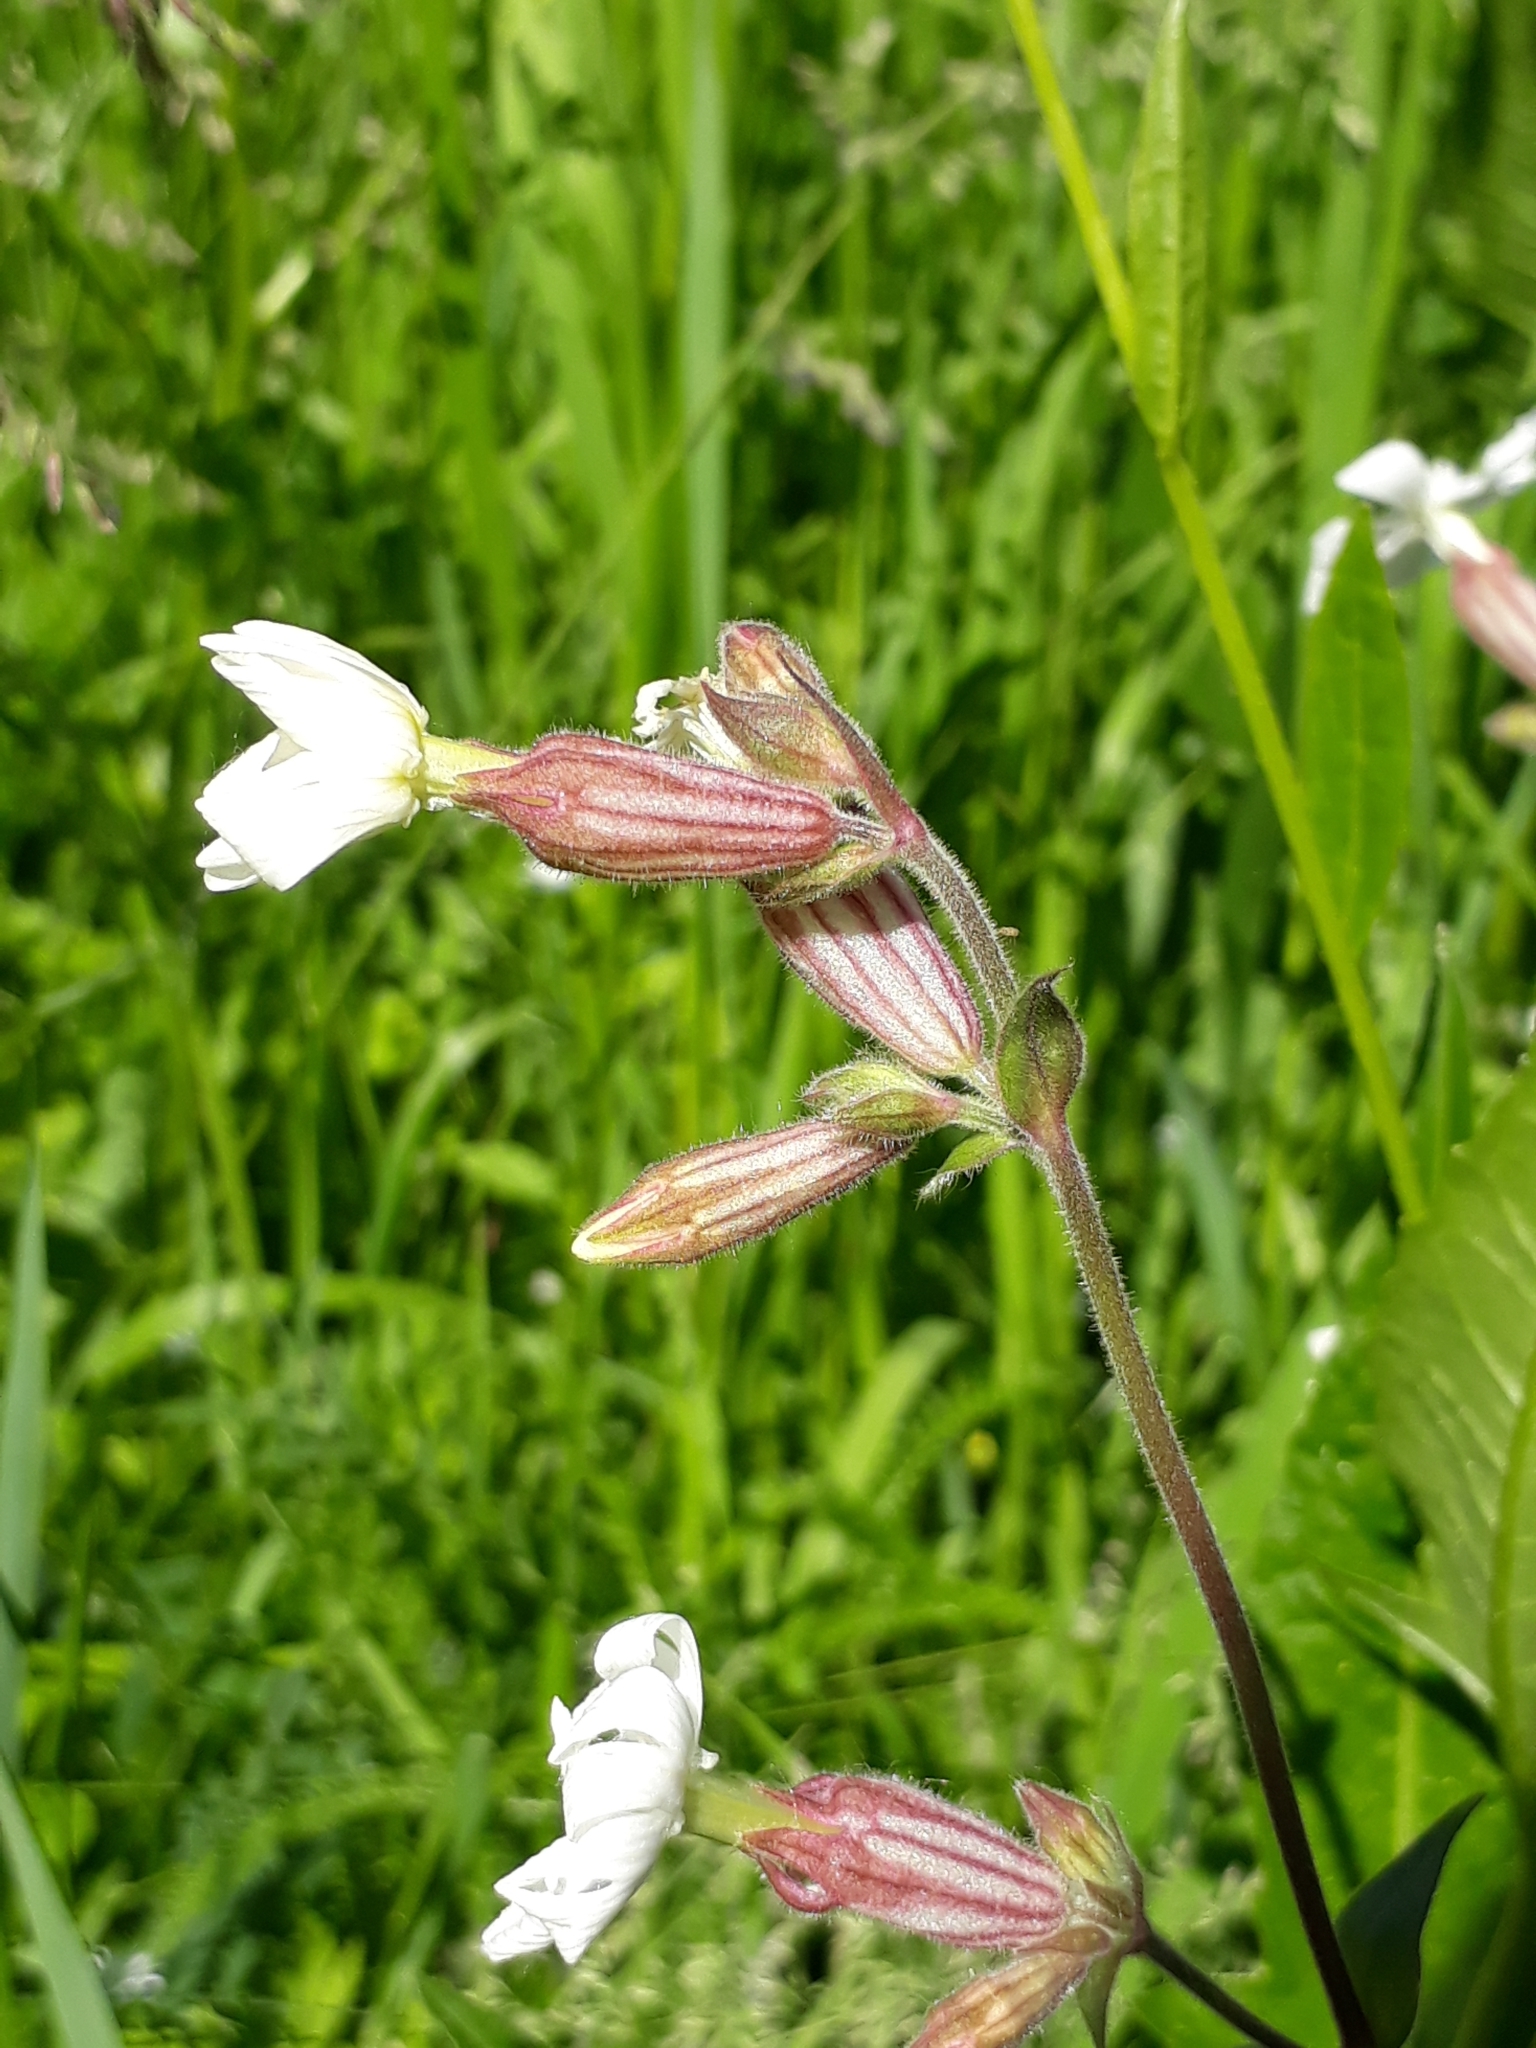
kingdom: Plantae
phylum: Tracheophyta
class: Magnoliopsida
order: Caryophyllales
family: Caryophyllaceae
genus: Silene
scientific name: Silene latifolia
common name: White campion
